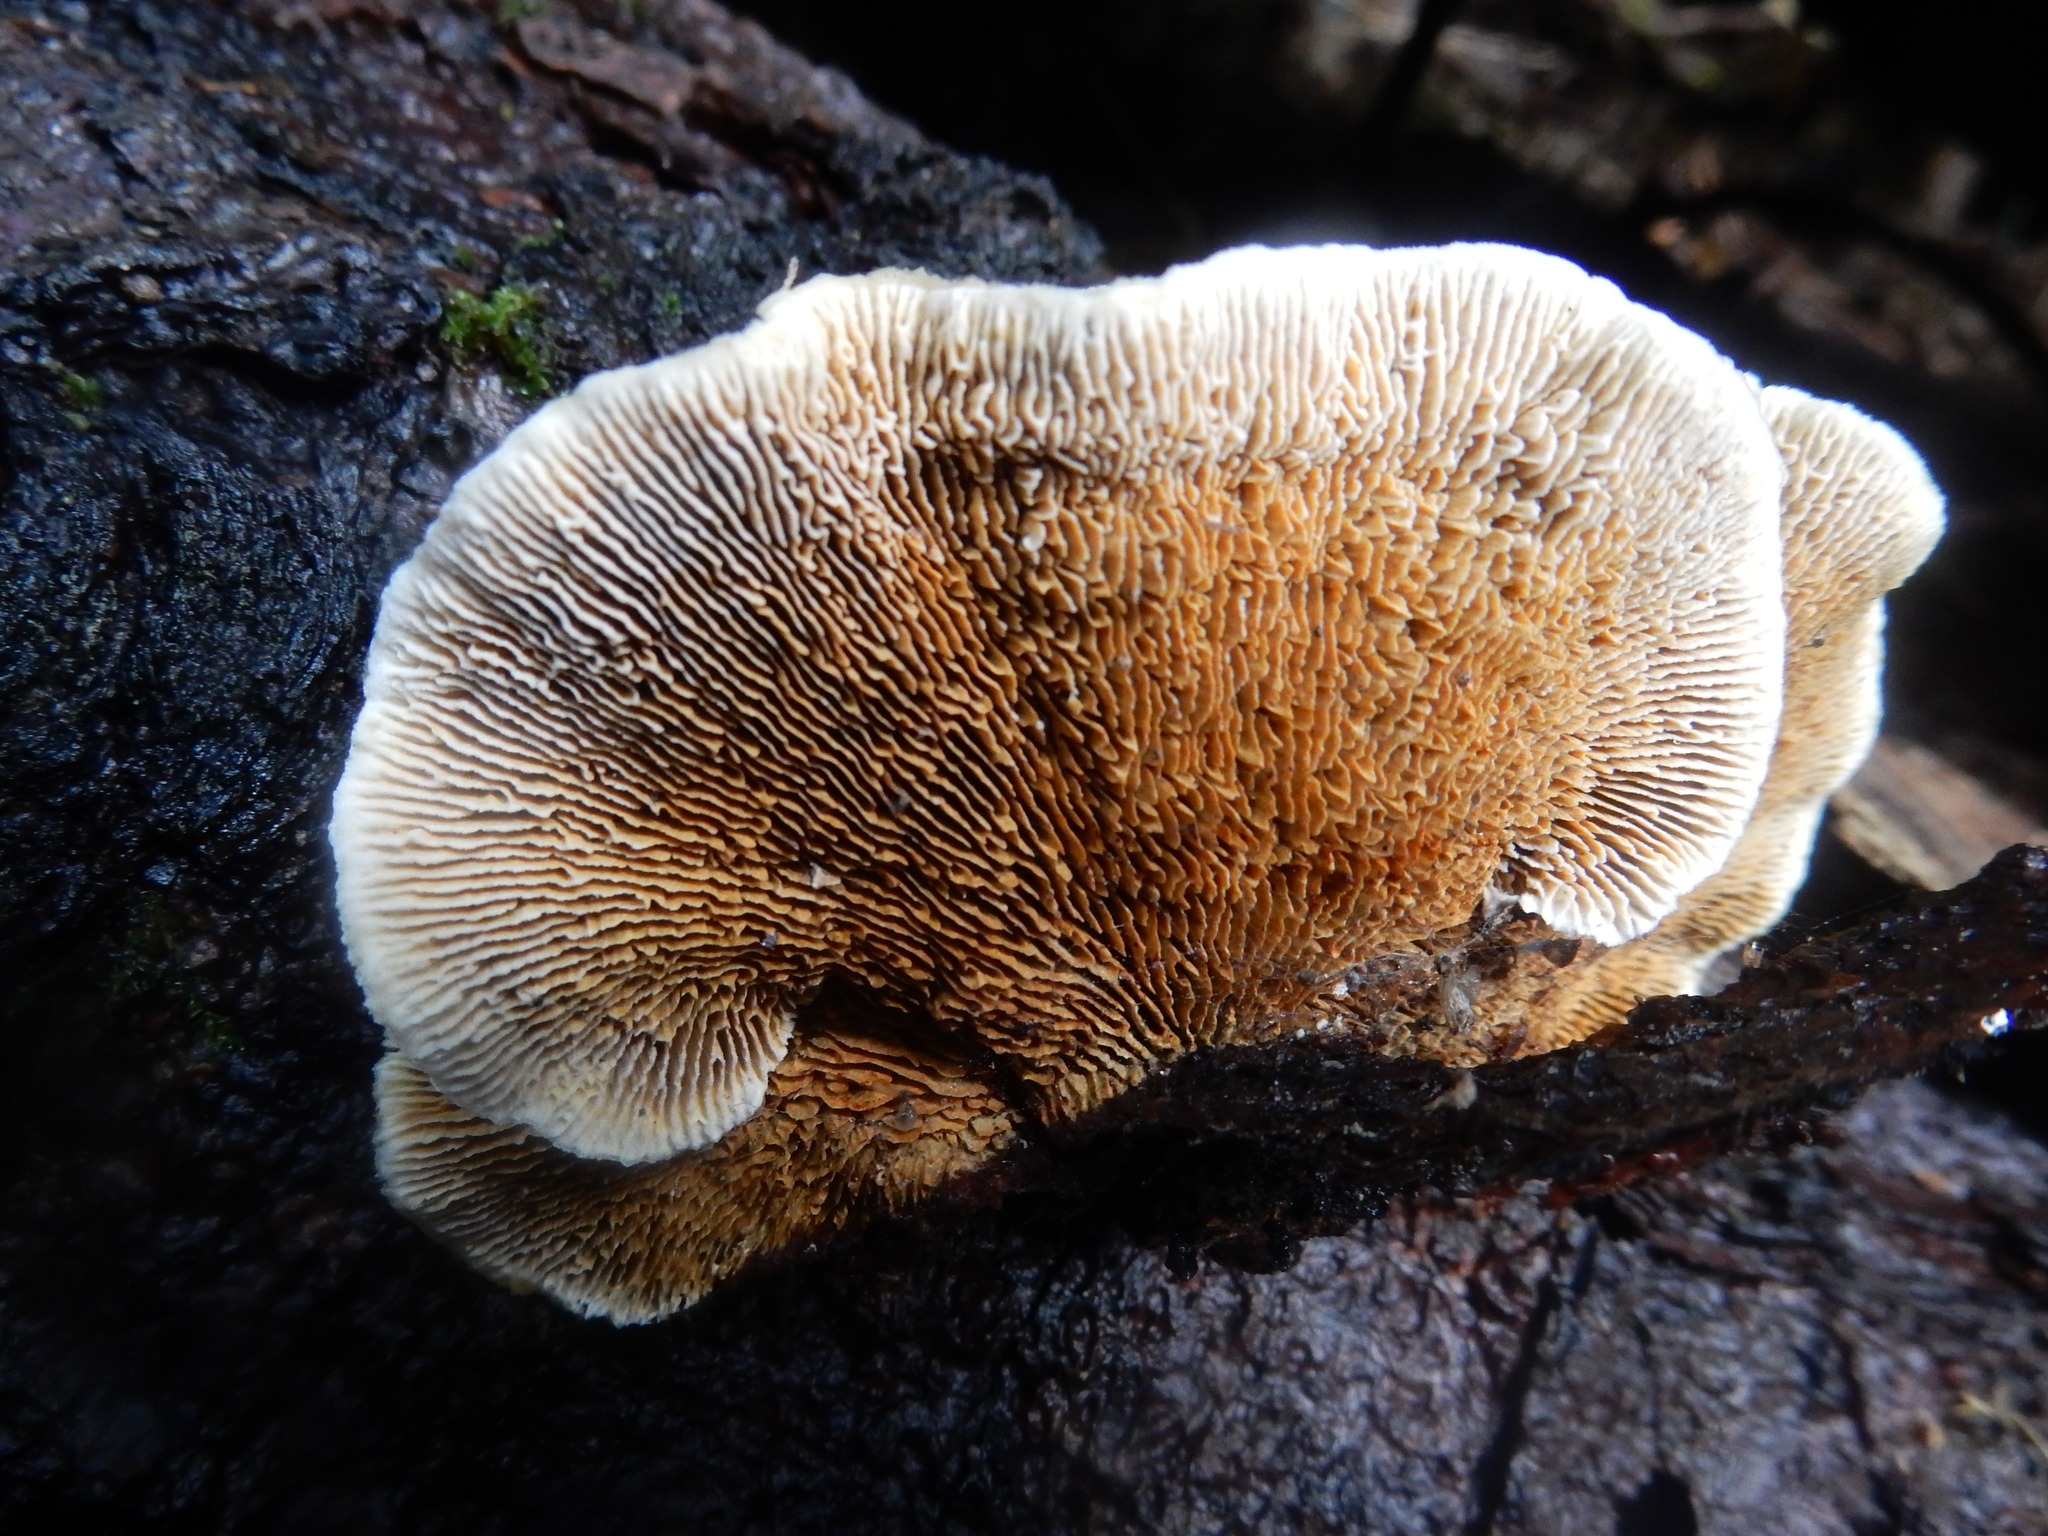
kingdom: Fungi
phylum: Basidiomycota
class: Agaricomycetes
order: Gloeophyllales
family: Gloeophyllaceae
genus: Gloeophyllum
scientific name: Gloeophyllum sepiarium
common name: Conifer mazegill
